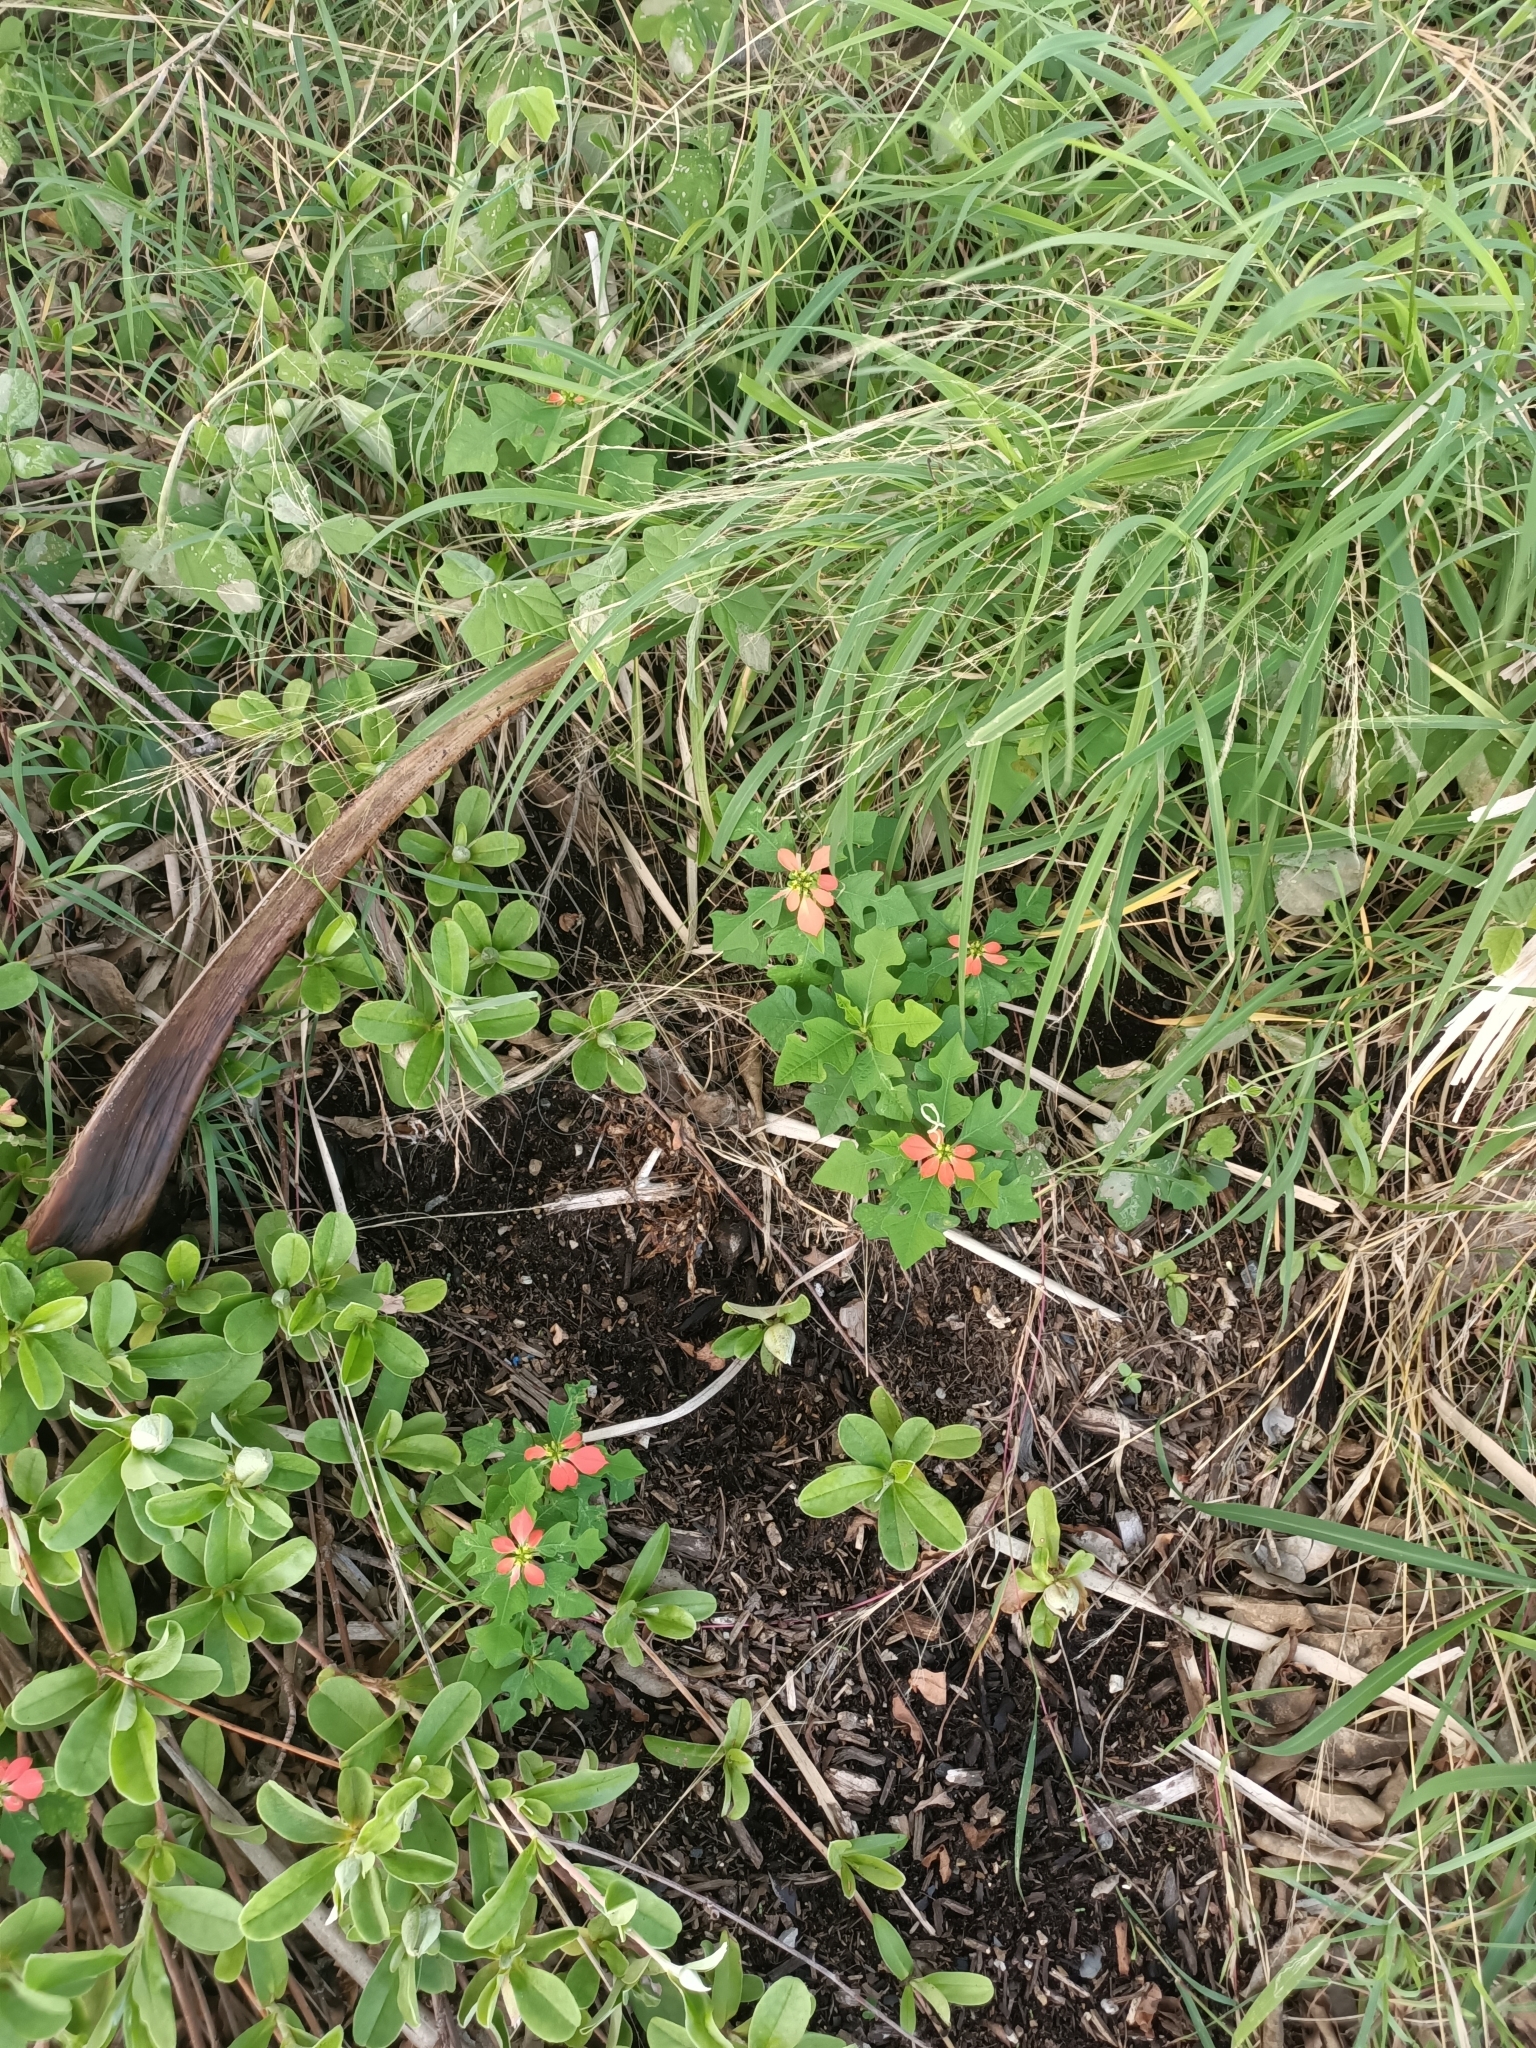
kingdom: Plantae
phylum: Tracheophyta
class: Magnoliopsida
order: Malpighiales
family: Euphorbiaceae
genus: Euphorbia
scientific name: Euphorbia heterophylla
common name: Mexican fireplant
